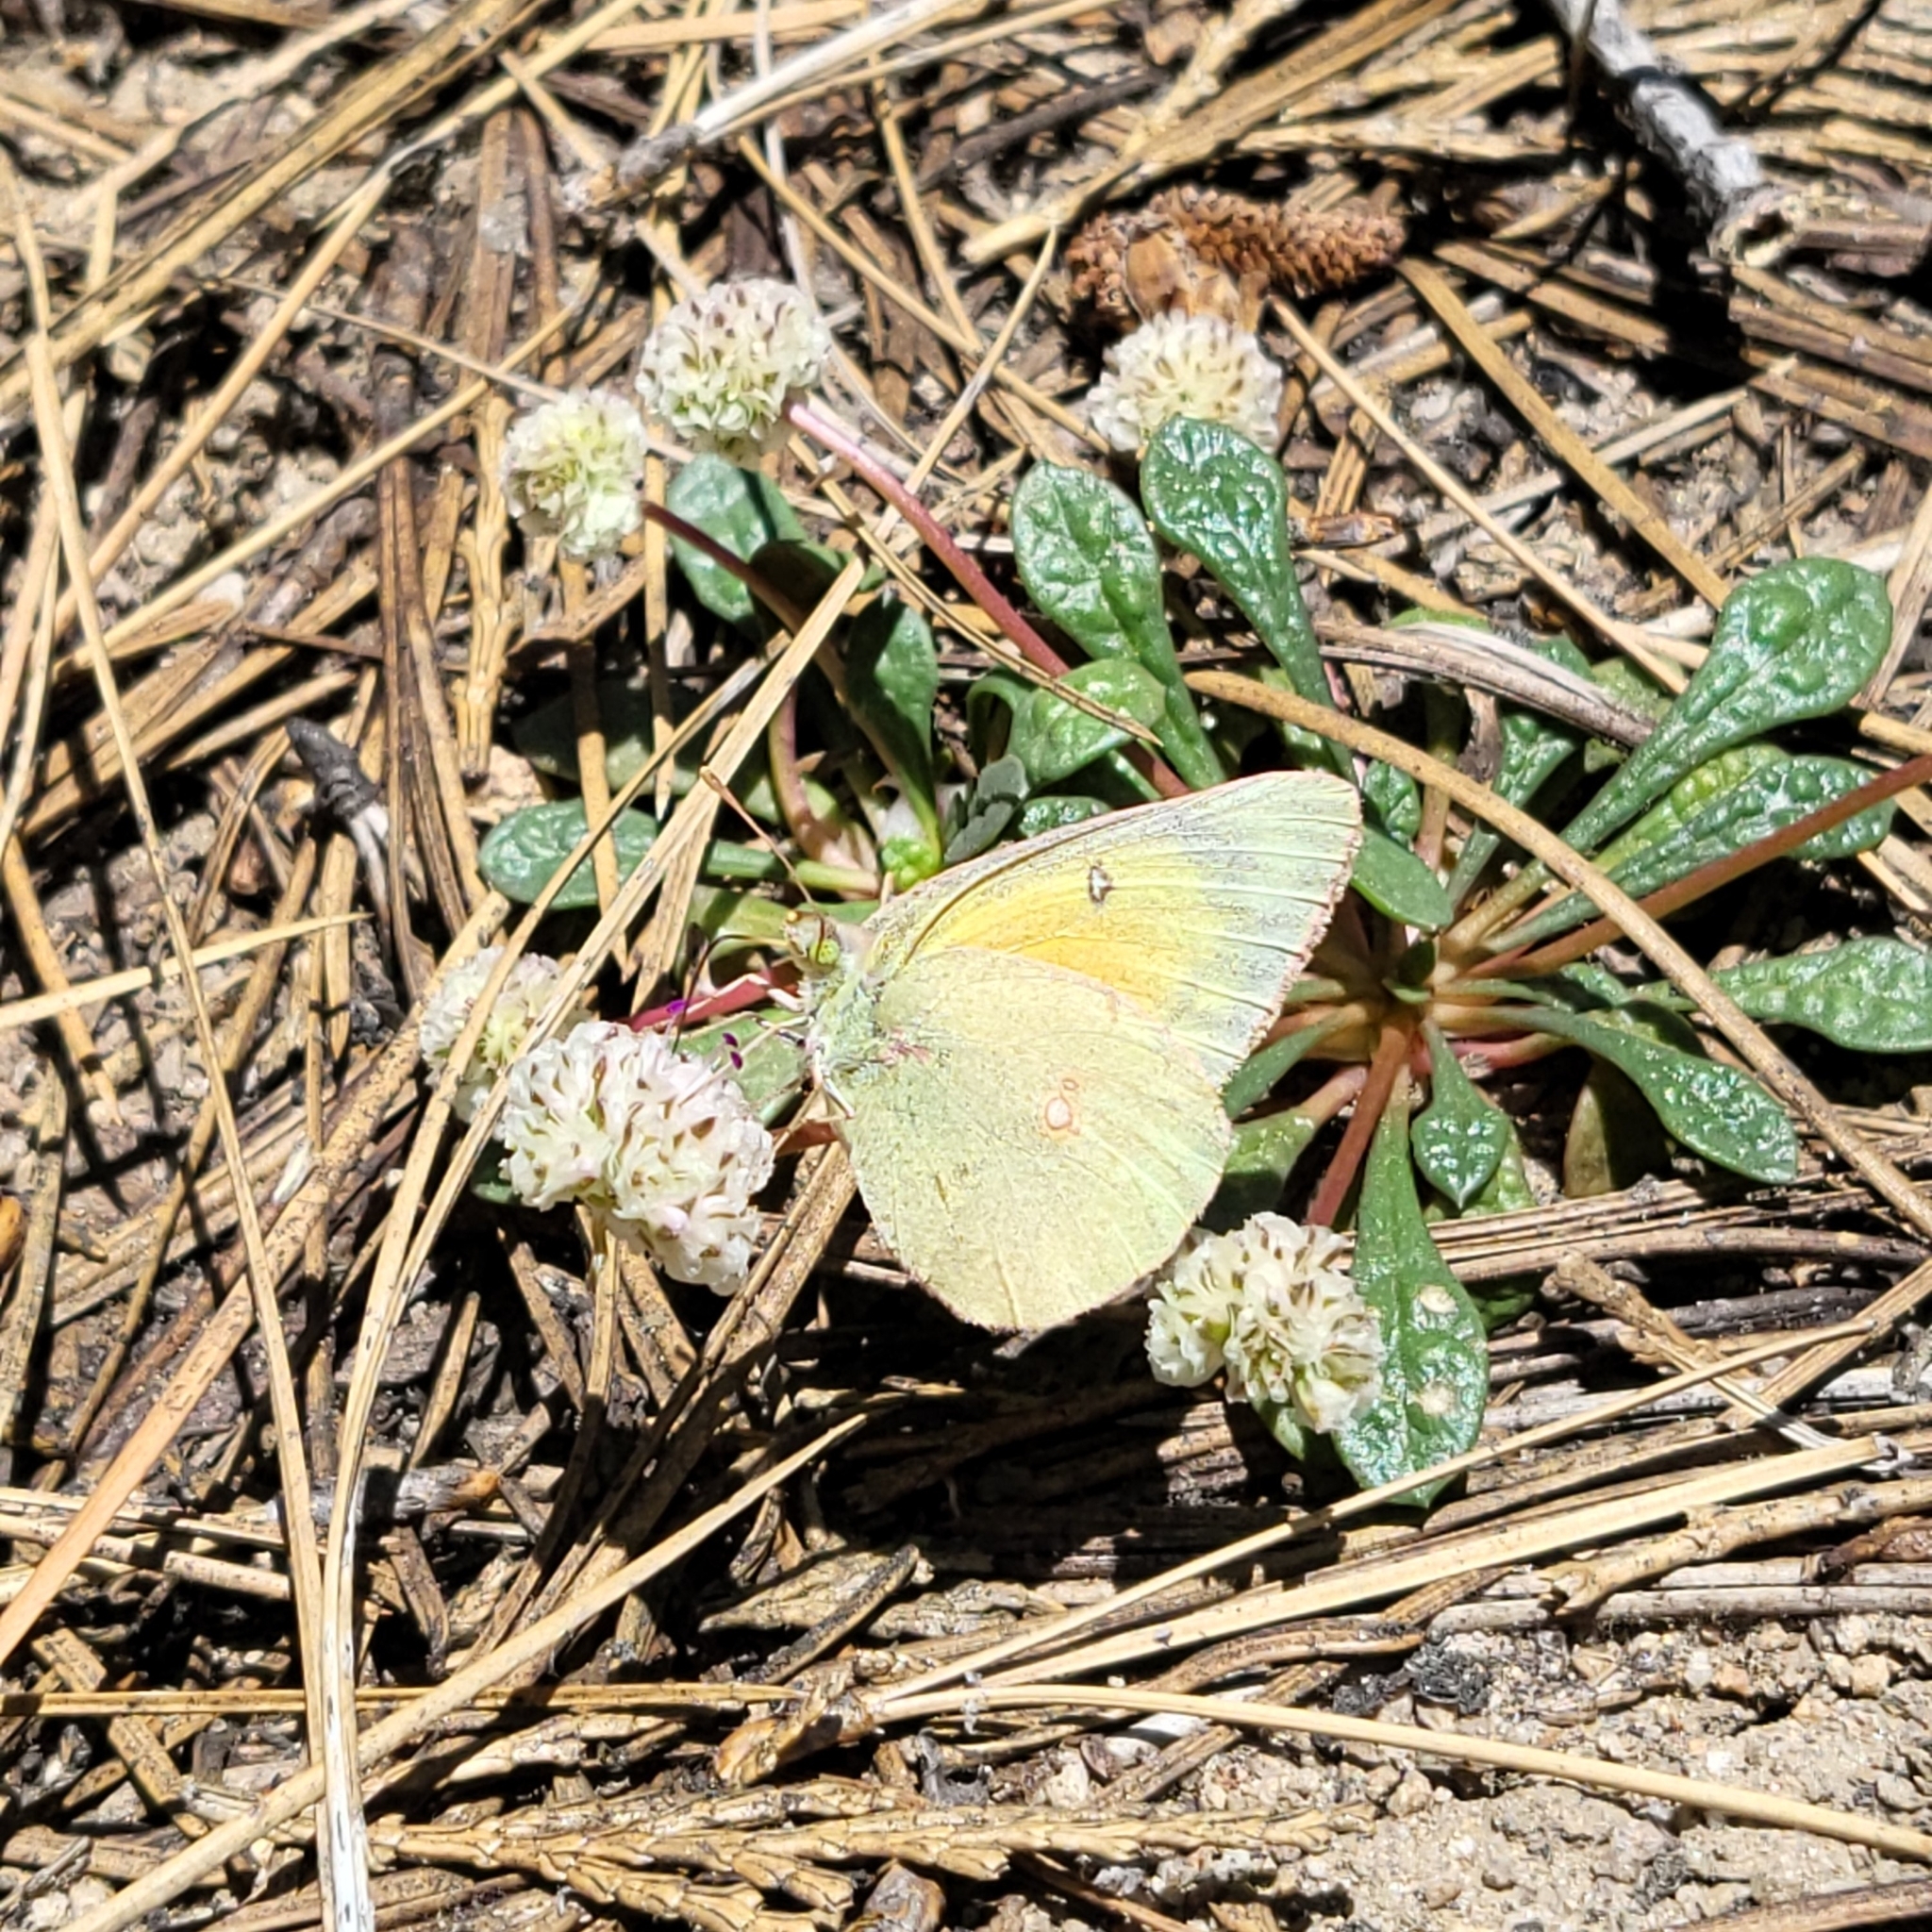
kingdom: Animalia
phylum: Arthropoda
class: Insecta
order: Lepidoptera
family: Pieridae
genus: Colias
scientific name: Colias eurytheme
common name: Alfalfa butterfly
